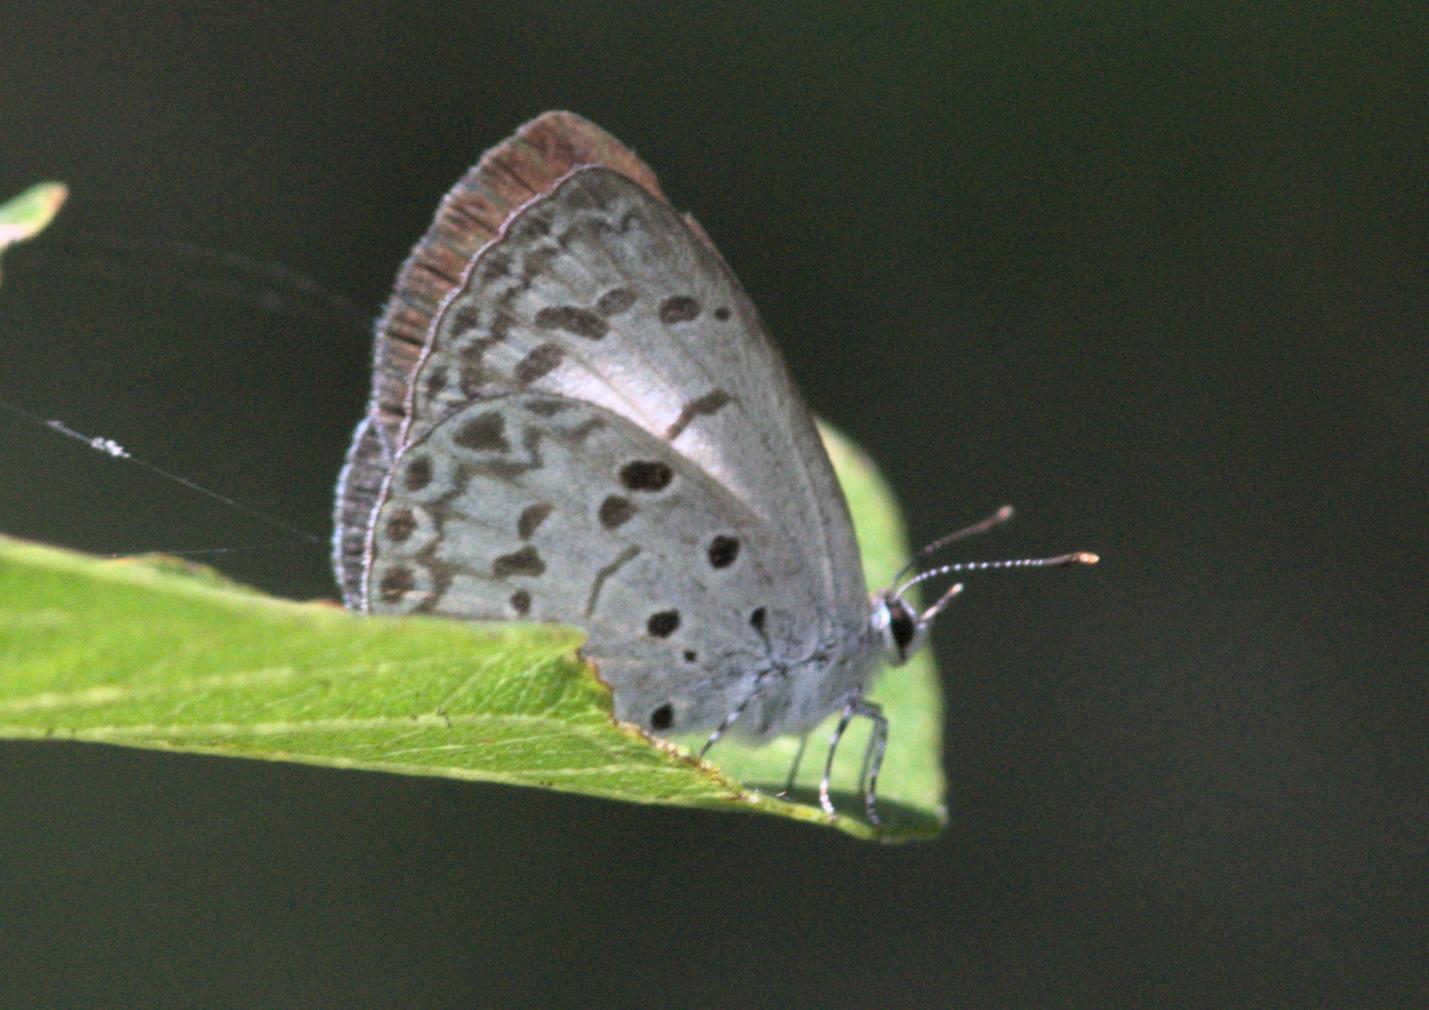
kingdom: Animalia
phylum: Arthropoda
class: Insecta
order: Lepidoptera
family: Lycaenidae
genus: Acytolepis
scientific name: Acytolepis puspa
